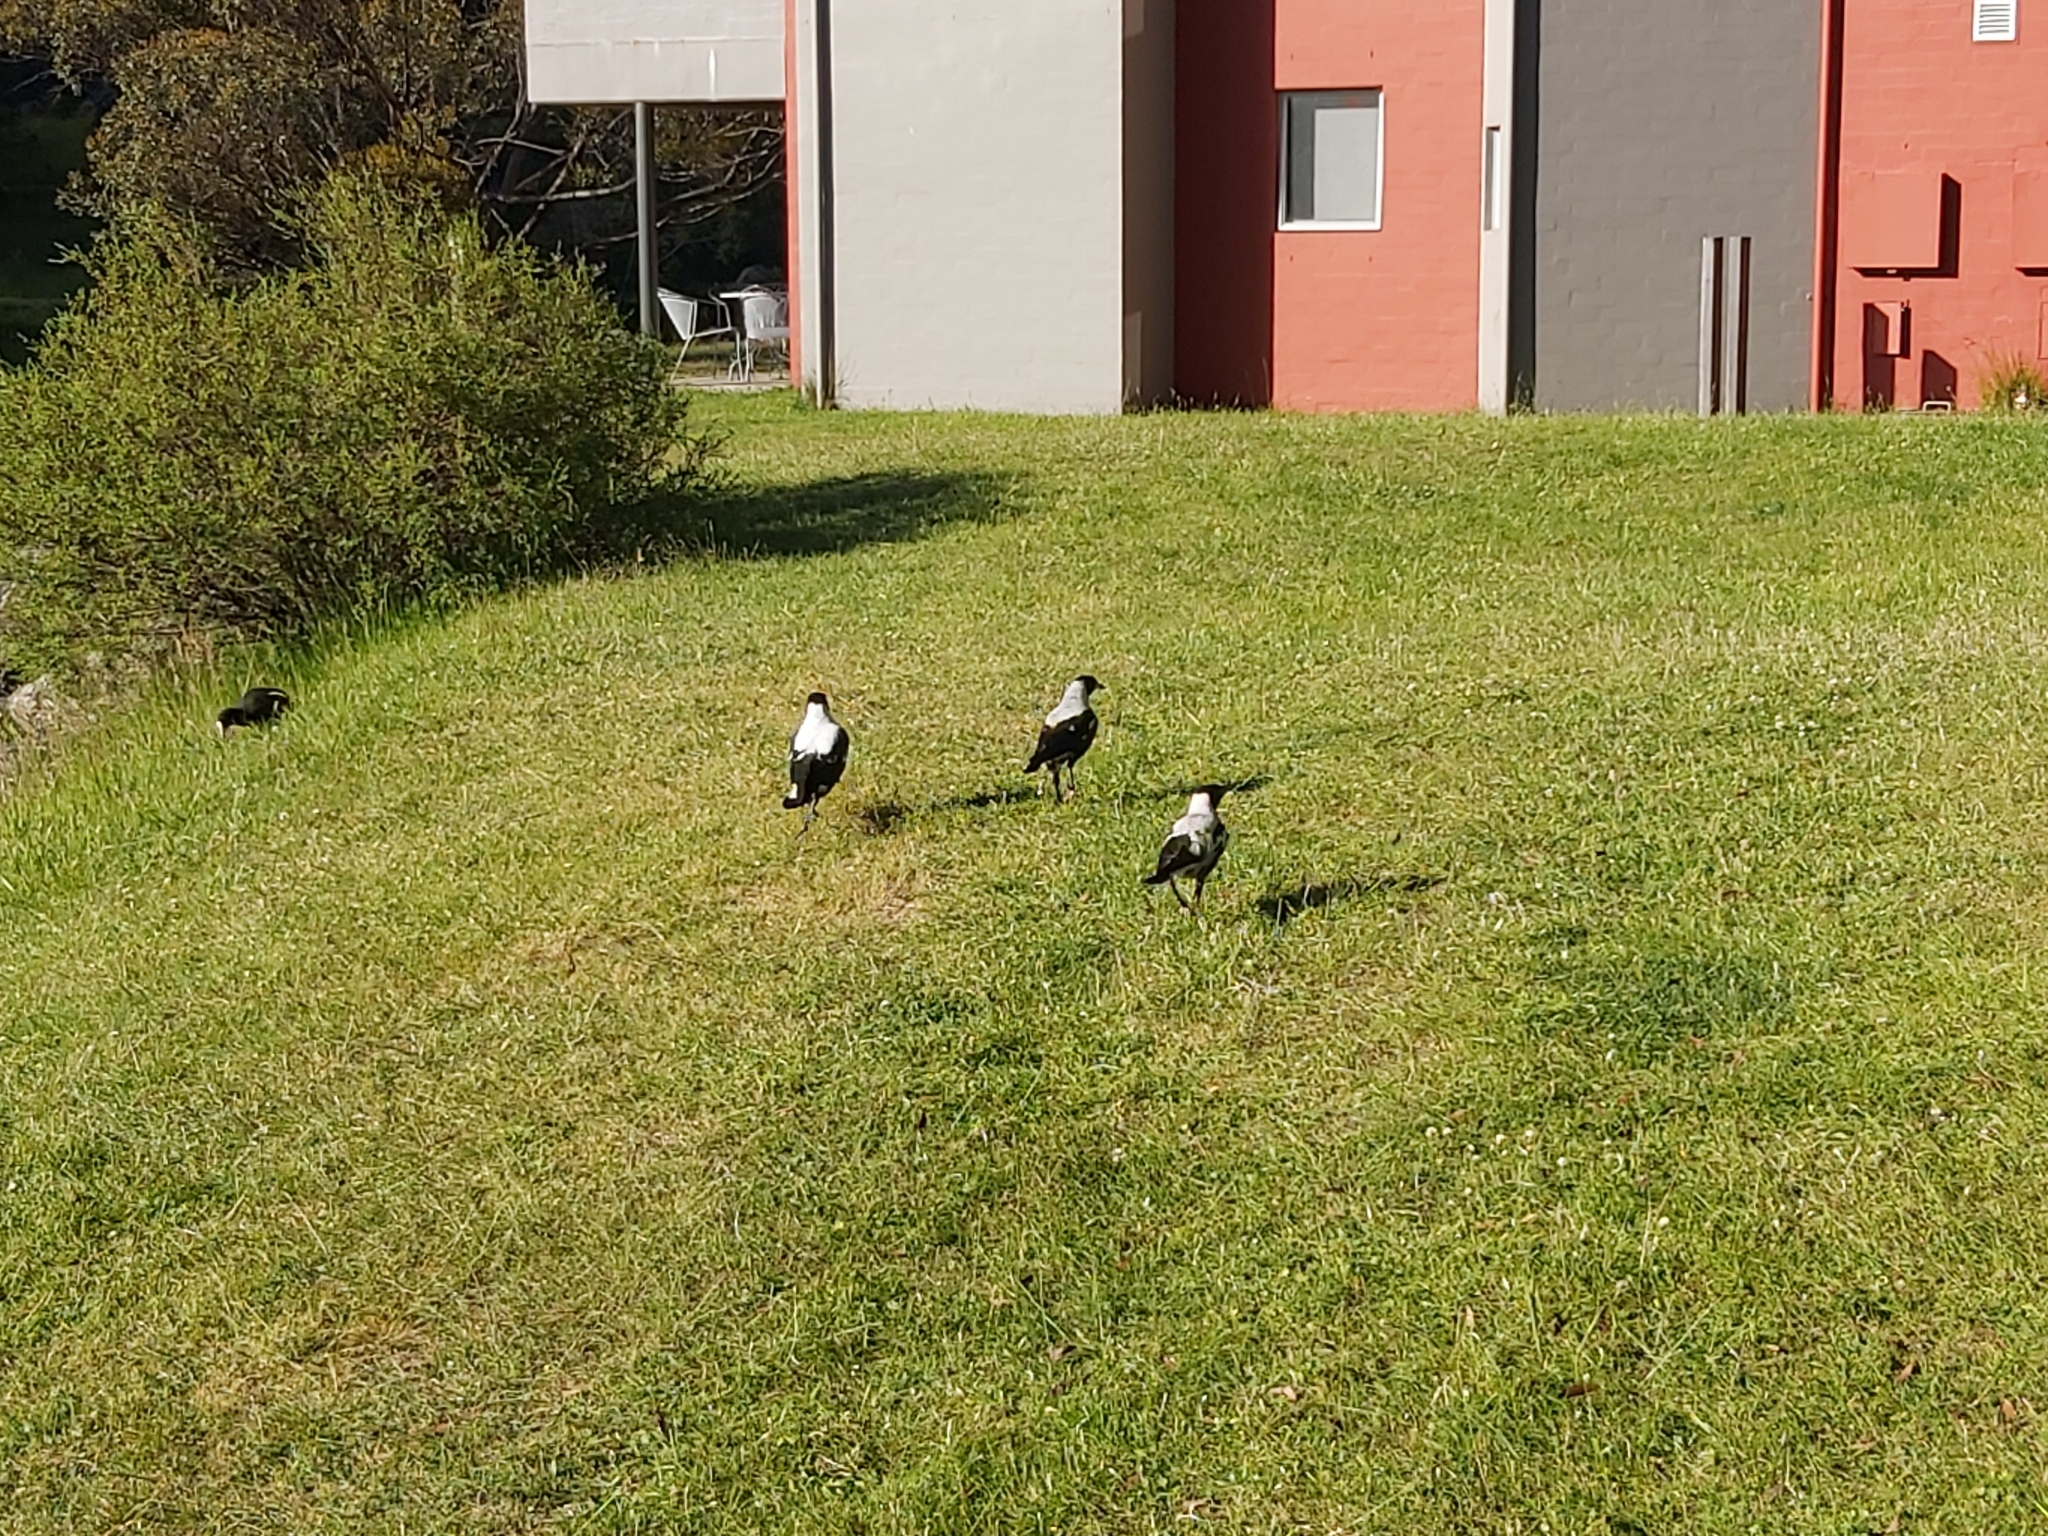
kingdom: Animalia
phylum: Chordata
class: Aves
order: Passeriformes
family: Cracticidae
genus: Gymnorhina
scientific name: Gymnorhina tibicen
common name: Australian magpie
